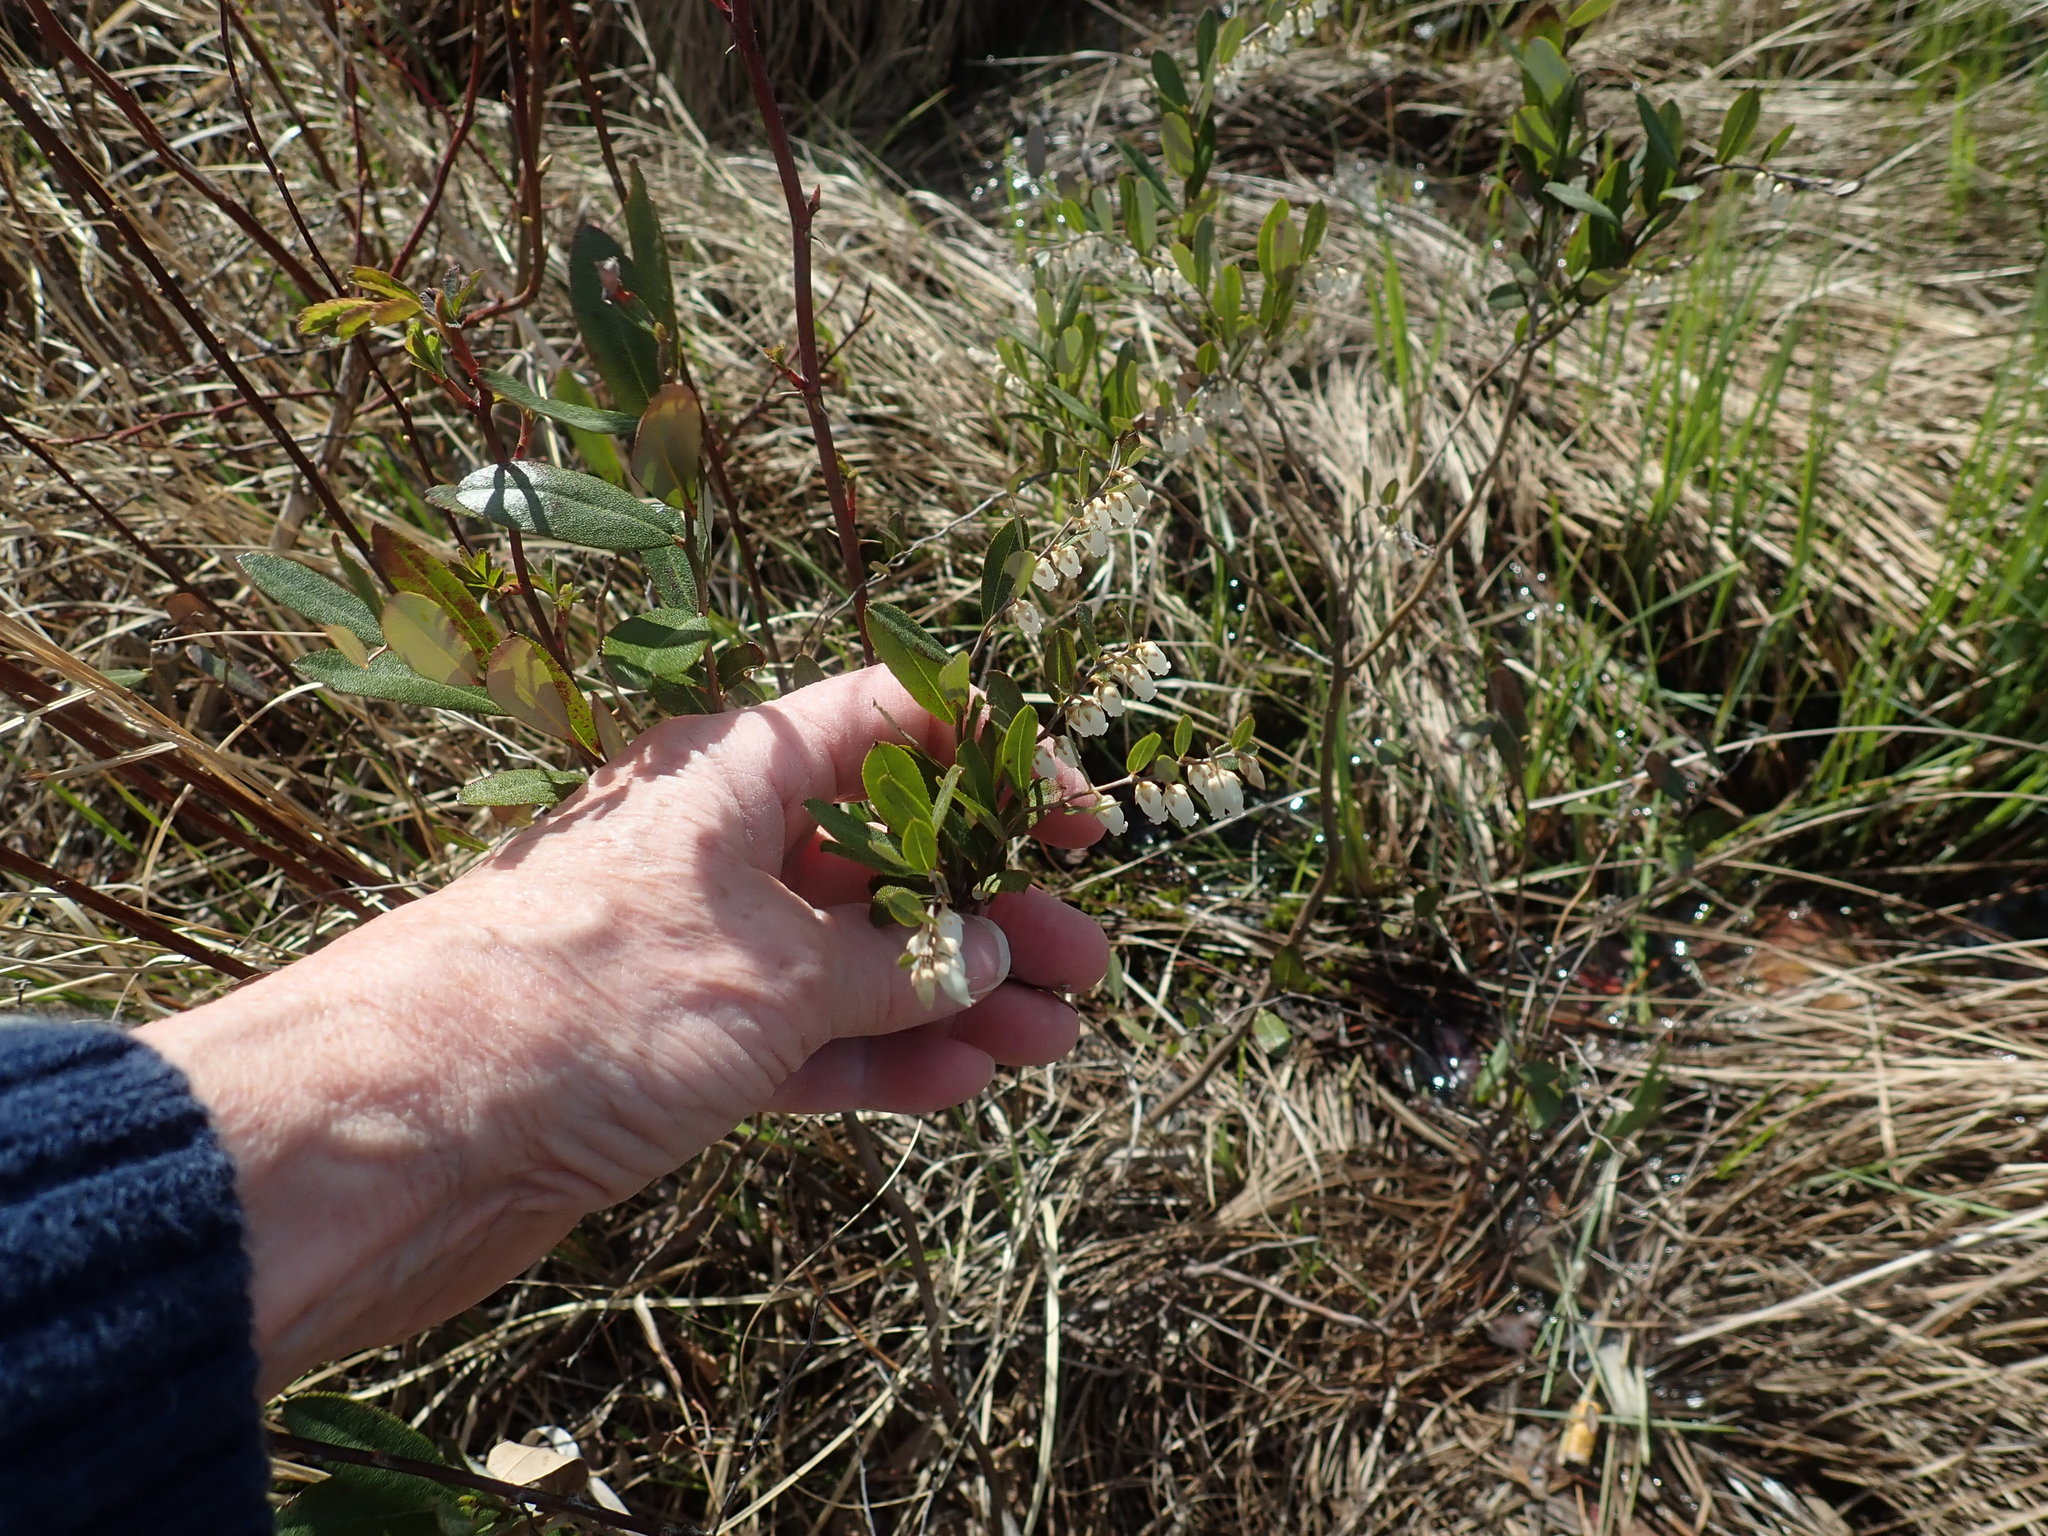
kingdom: Plantae
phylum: Tracheophyta
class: Magnoliopsida
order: Ericales
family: Ericaceae
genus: Chamaedaphne
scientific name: Chamaedaphne calyculata
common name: Leatherleaf
